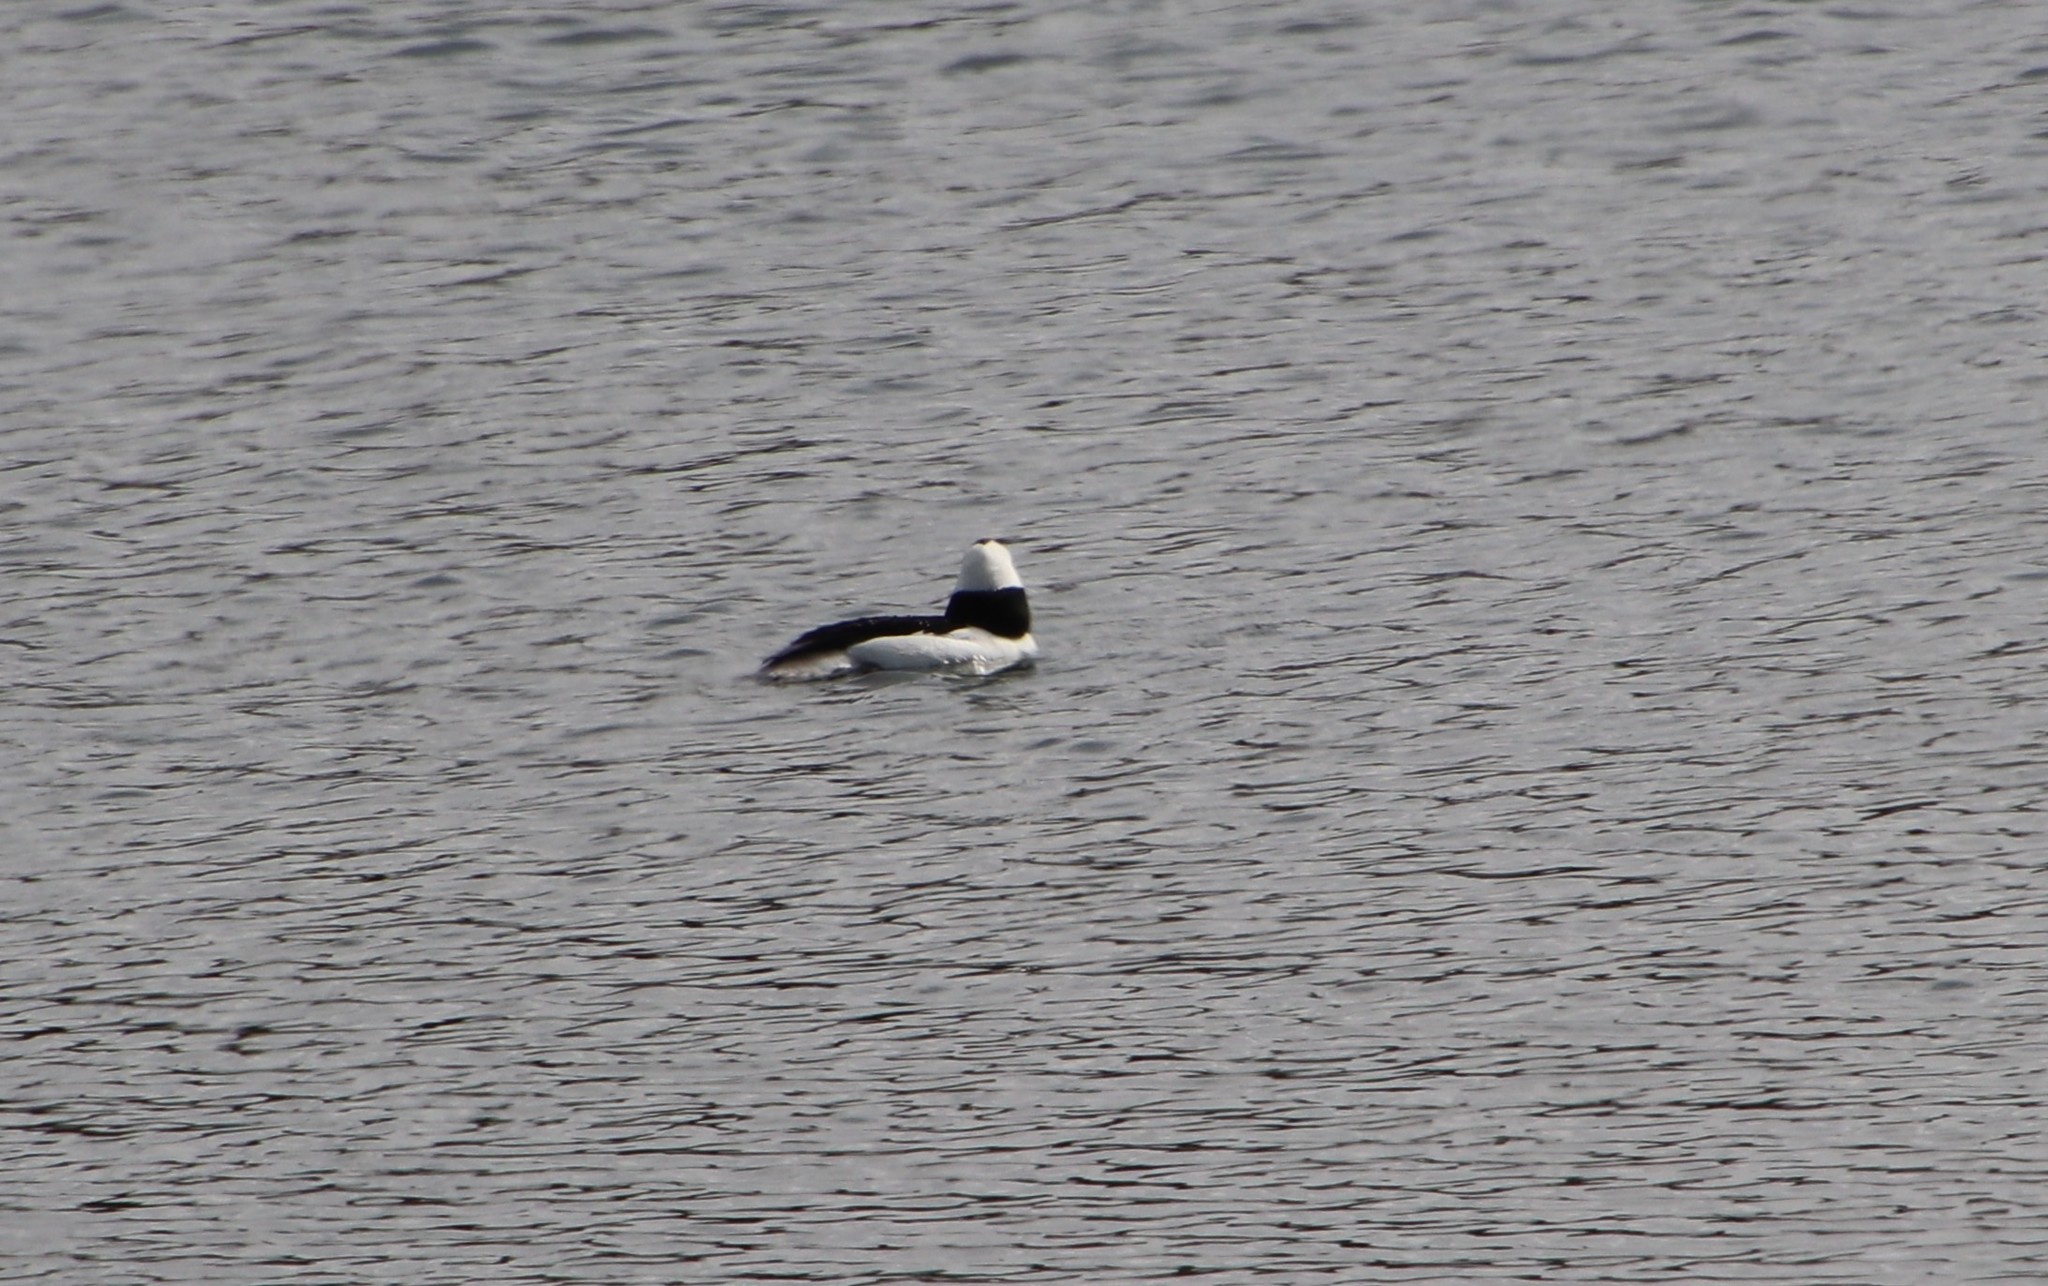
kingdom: Animalia
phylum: Chordata
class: Aves
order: Anseriformes
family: Anatidae
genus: Bucephala
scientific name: Bucephala albeola
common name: Bufflehead
